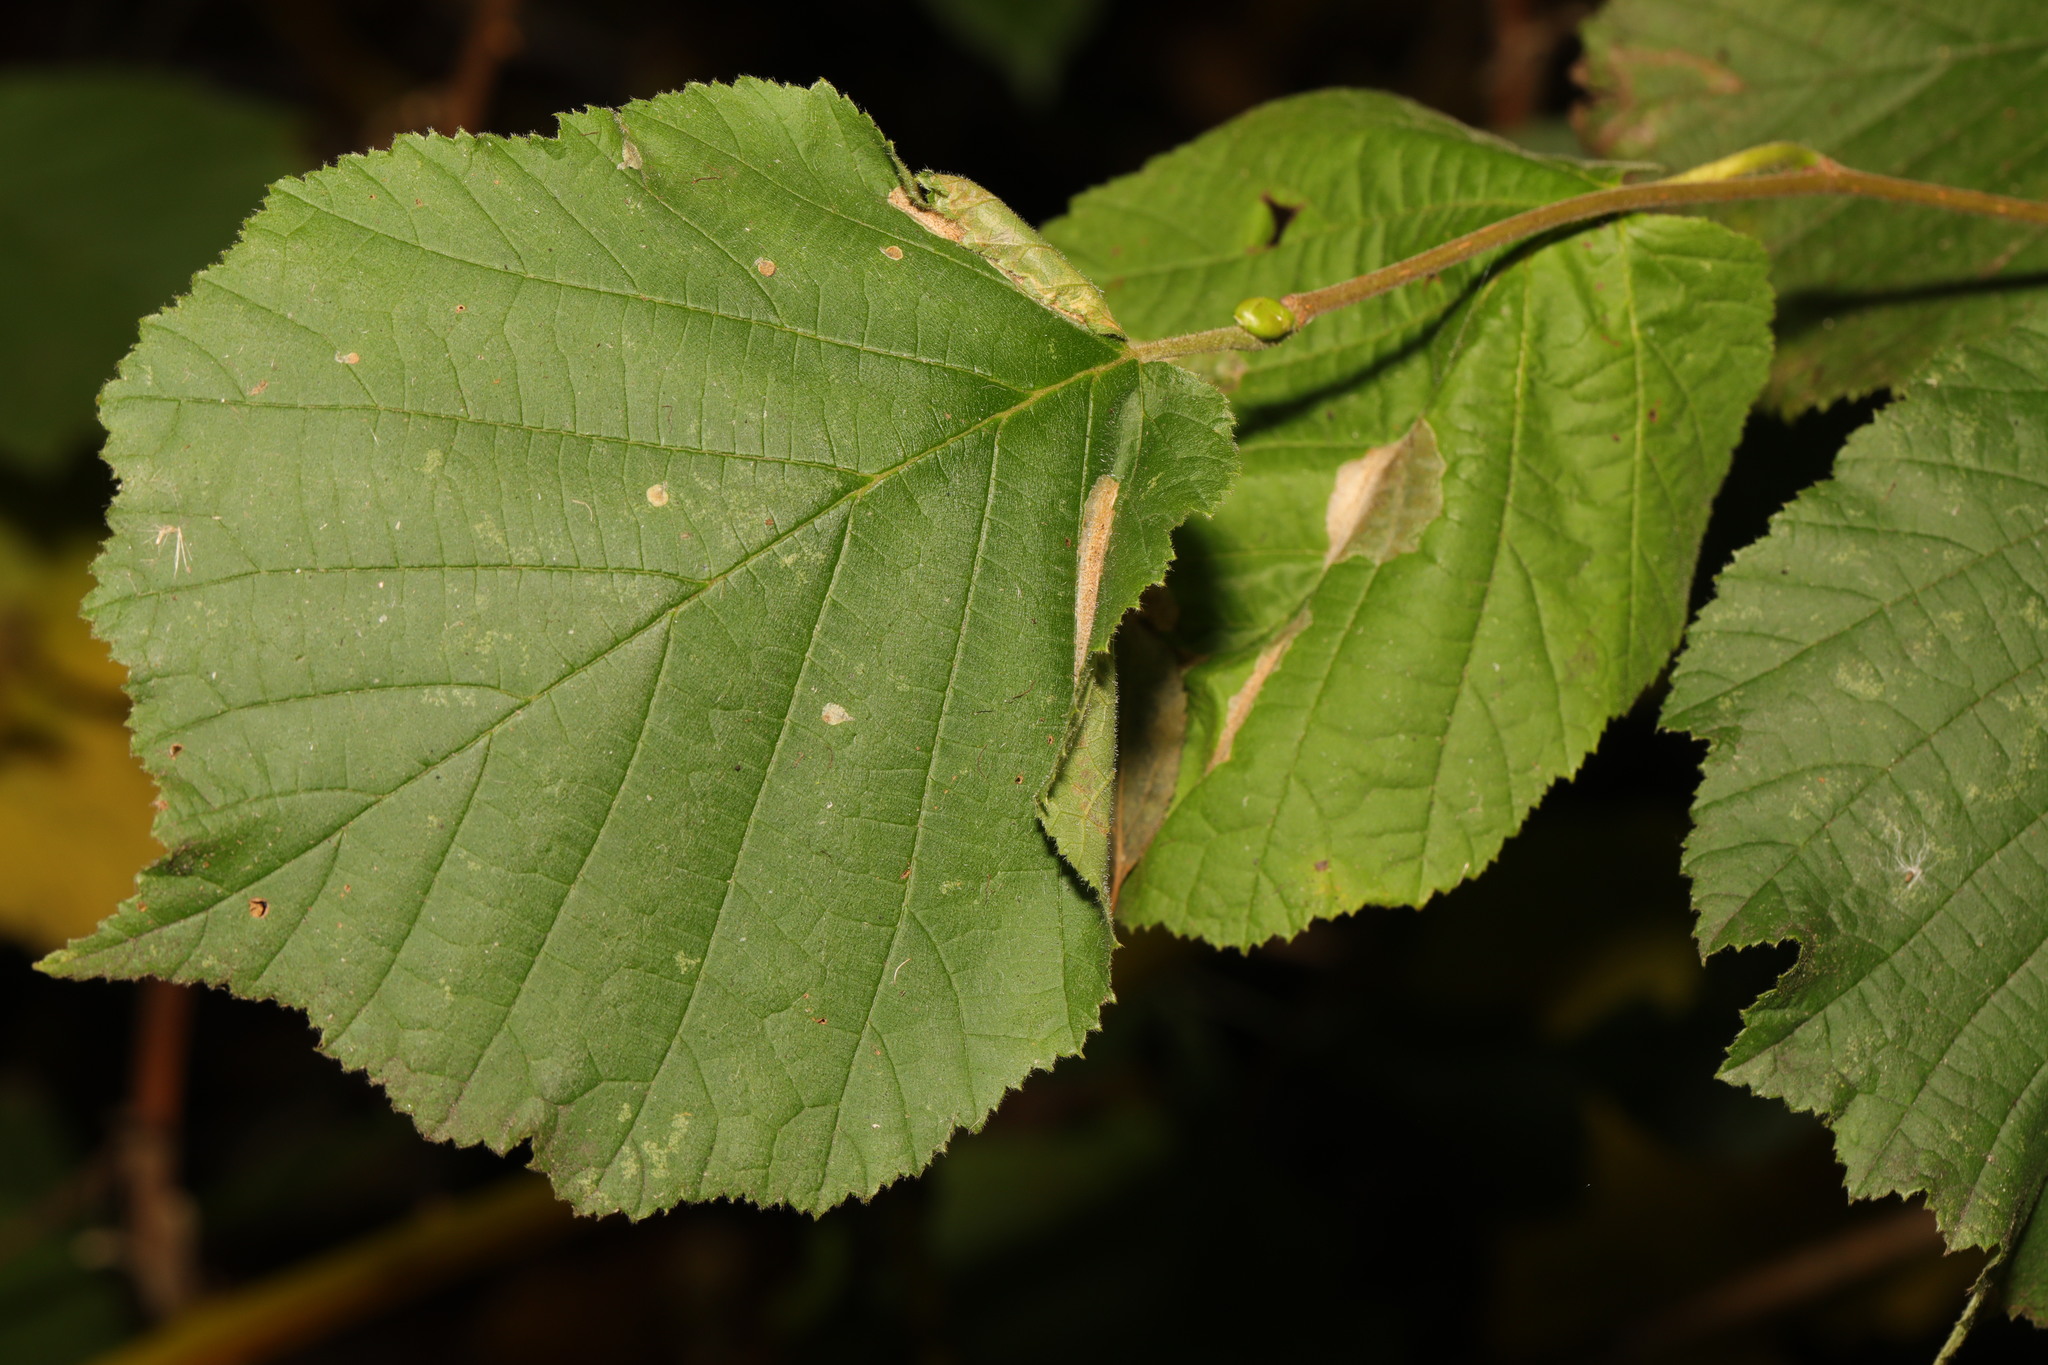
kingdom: Animalia
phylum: Arthropoda
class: Insecta
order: Lepidoptera
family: Gracillariidae
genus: Phyllonorycter
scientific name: Phyllonorycter coryli
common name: Nut-leaf blister moth
